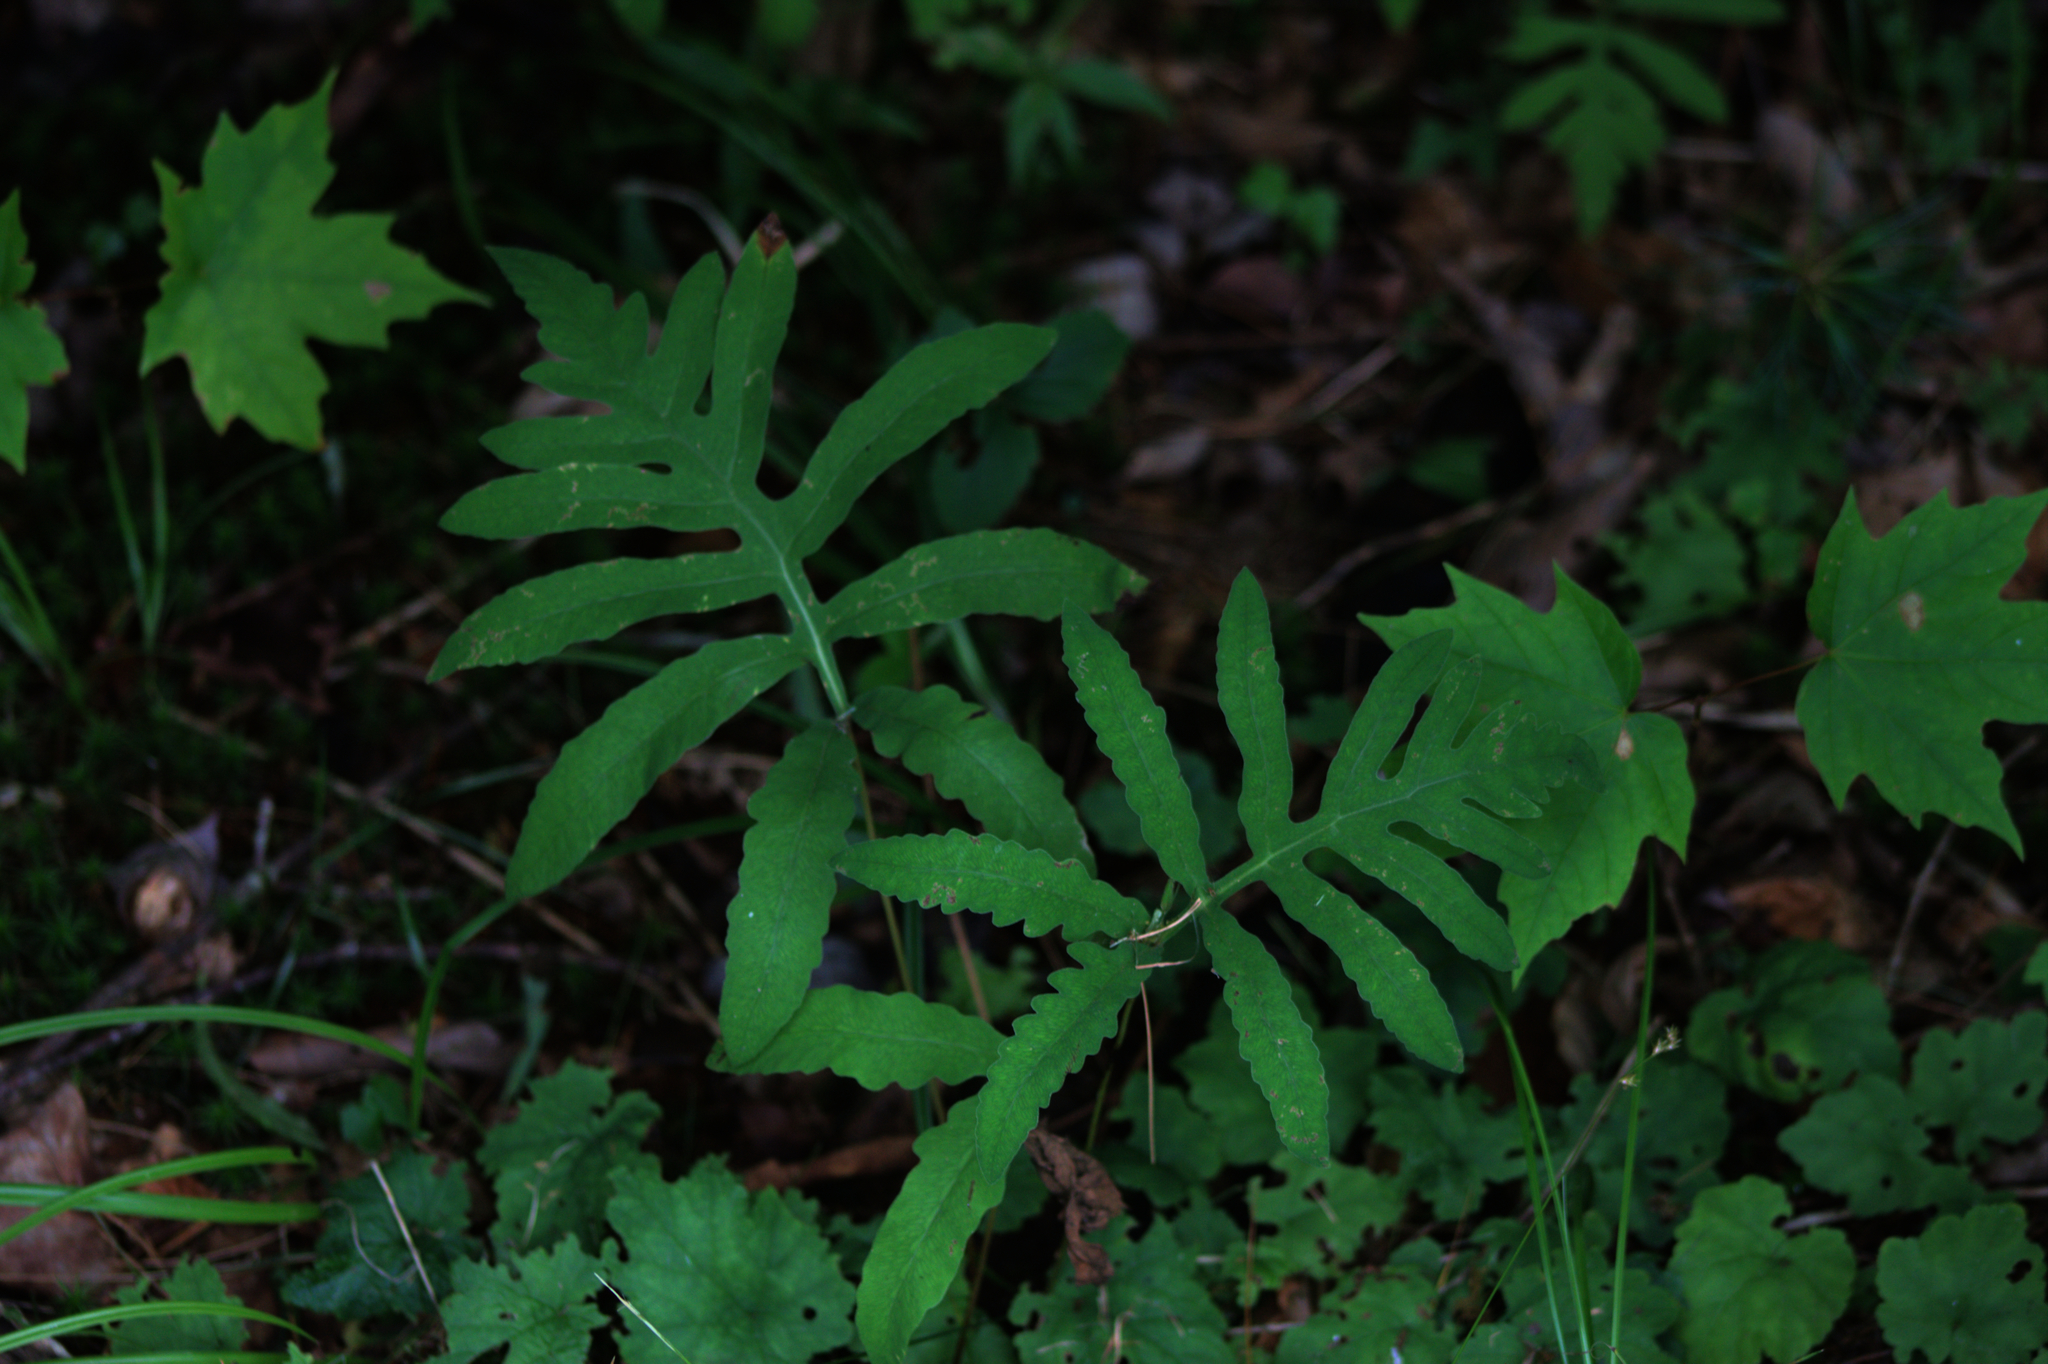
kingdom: Plantae
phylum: Tracheophyta
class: Polypodiopsida
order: Polypodiales
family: Onocleaceae
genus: Onoclea
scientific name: Onoclea sensibilis
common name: Sensitive fern
